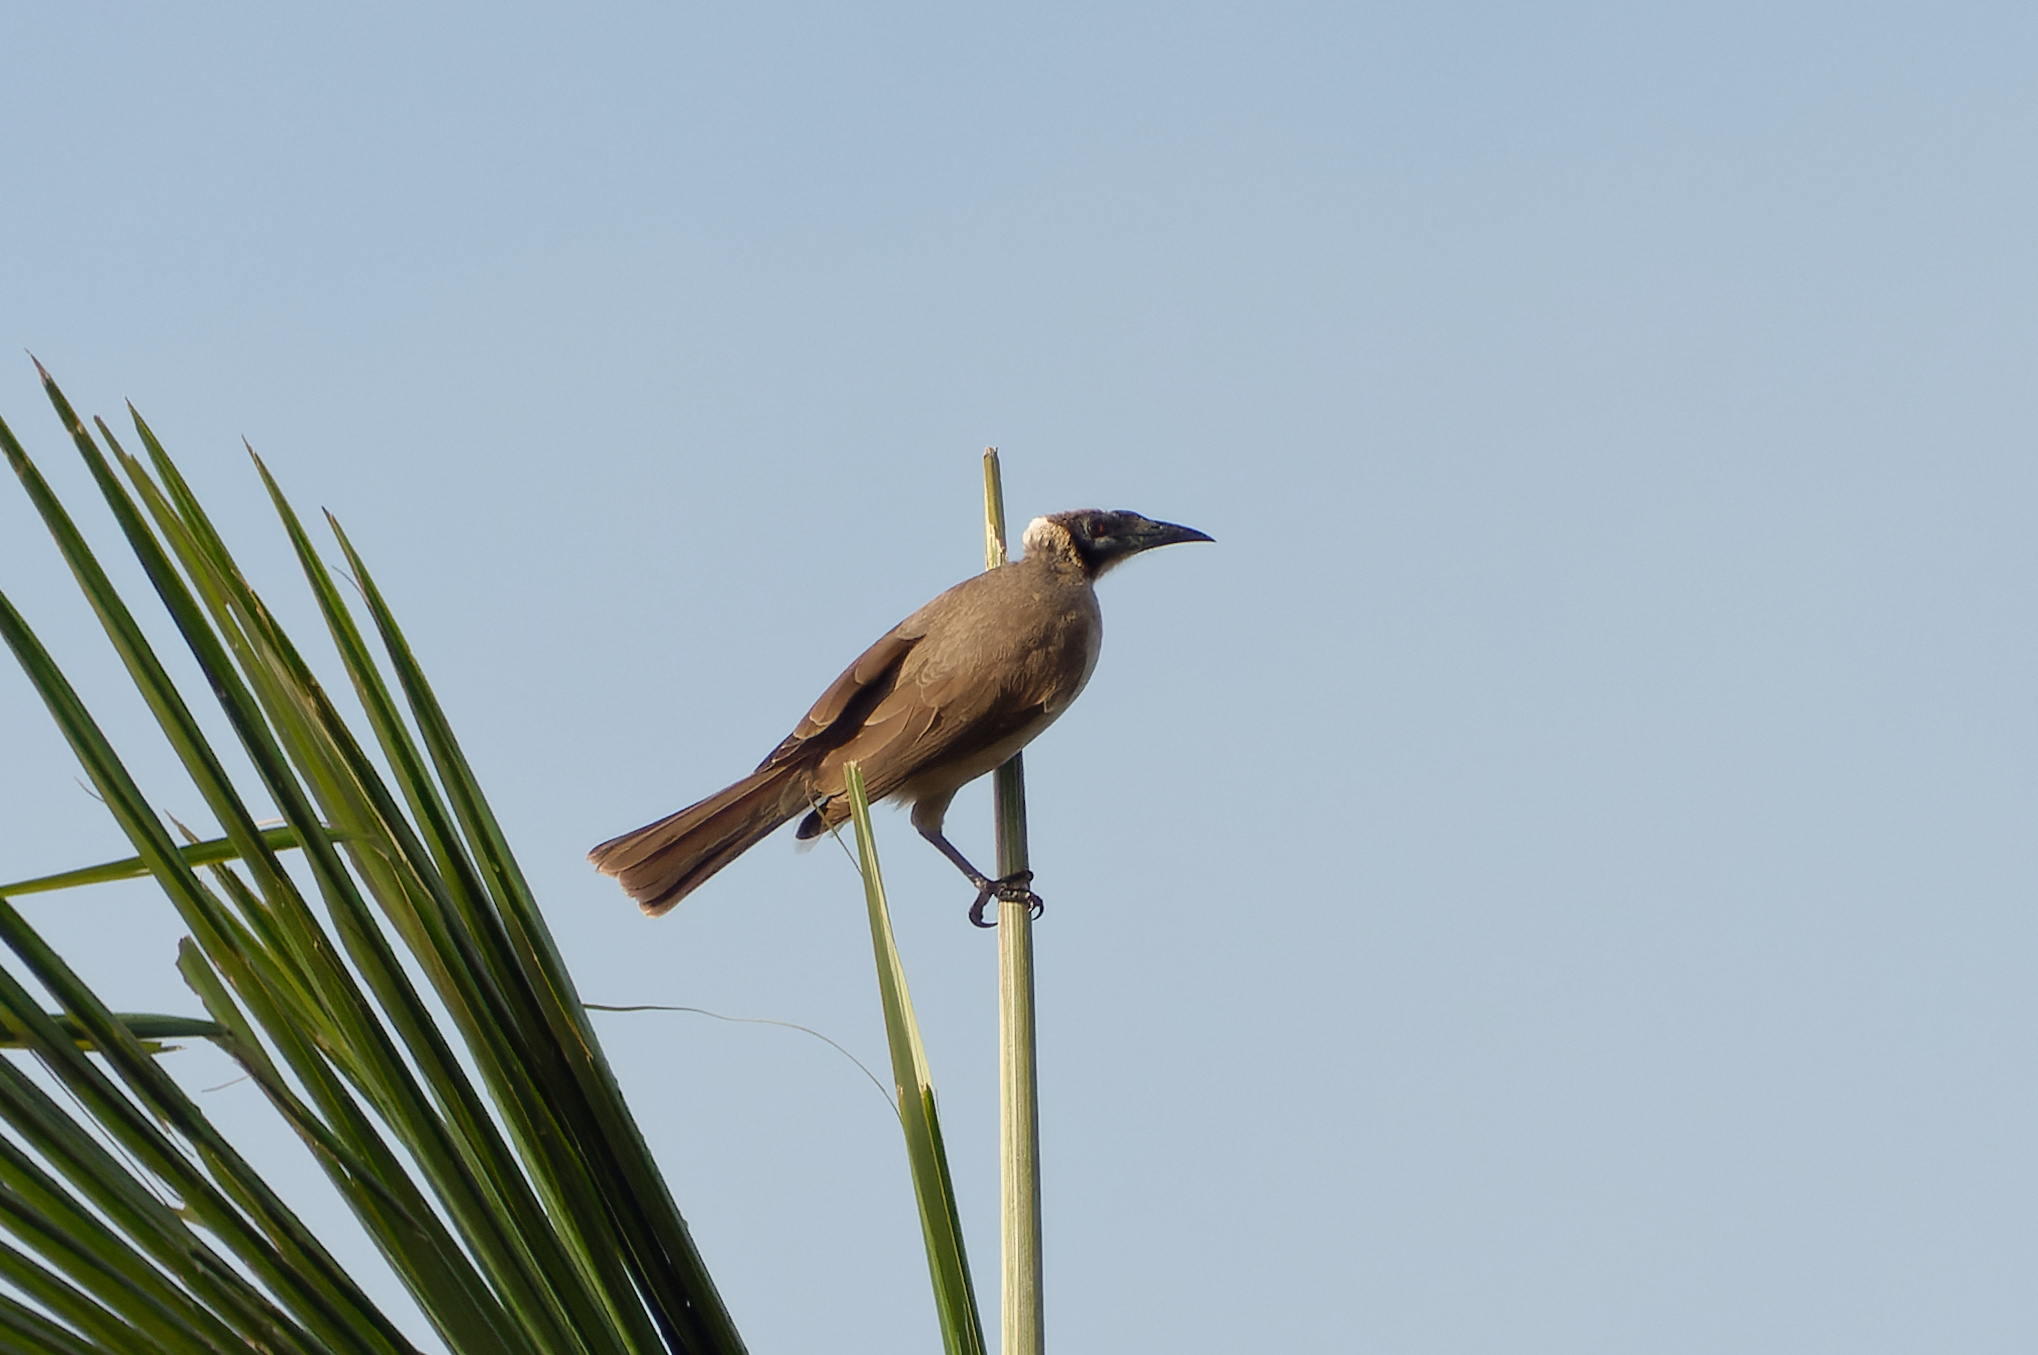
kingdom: Animalia
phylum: Chordata
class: Aves
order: Passeriformes
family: Meliphagidae
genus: Philemon
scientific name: Philemon buceroides
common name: Helmeted friarbird
